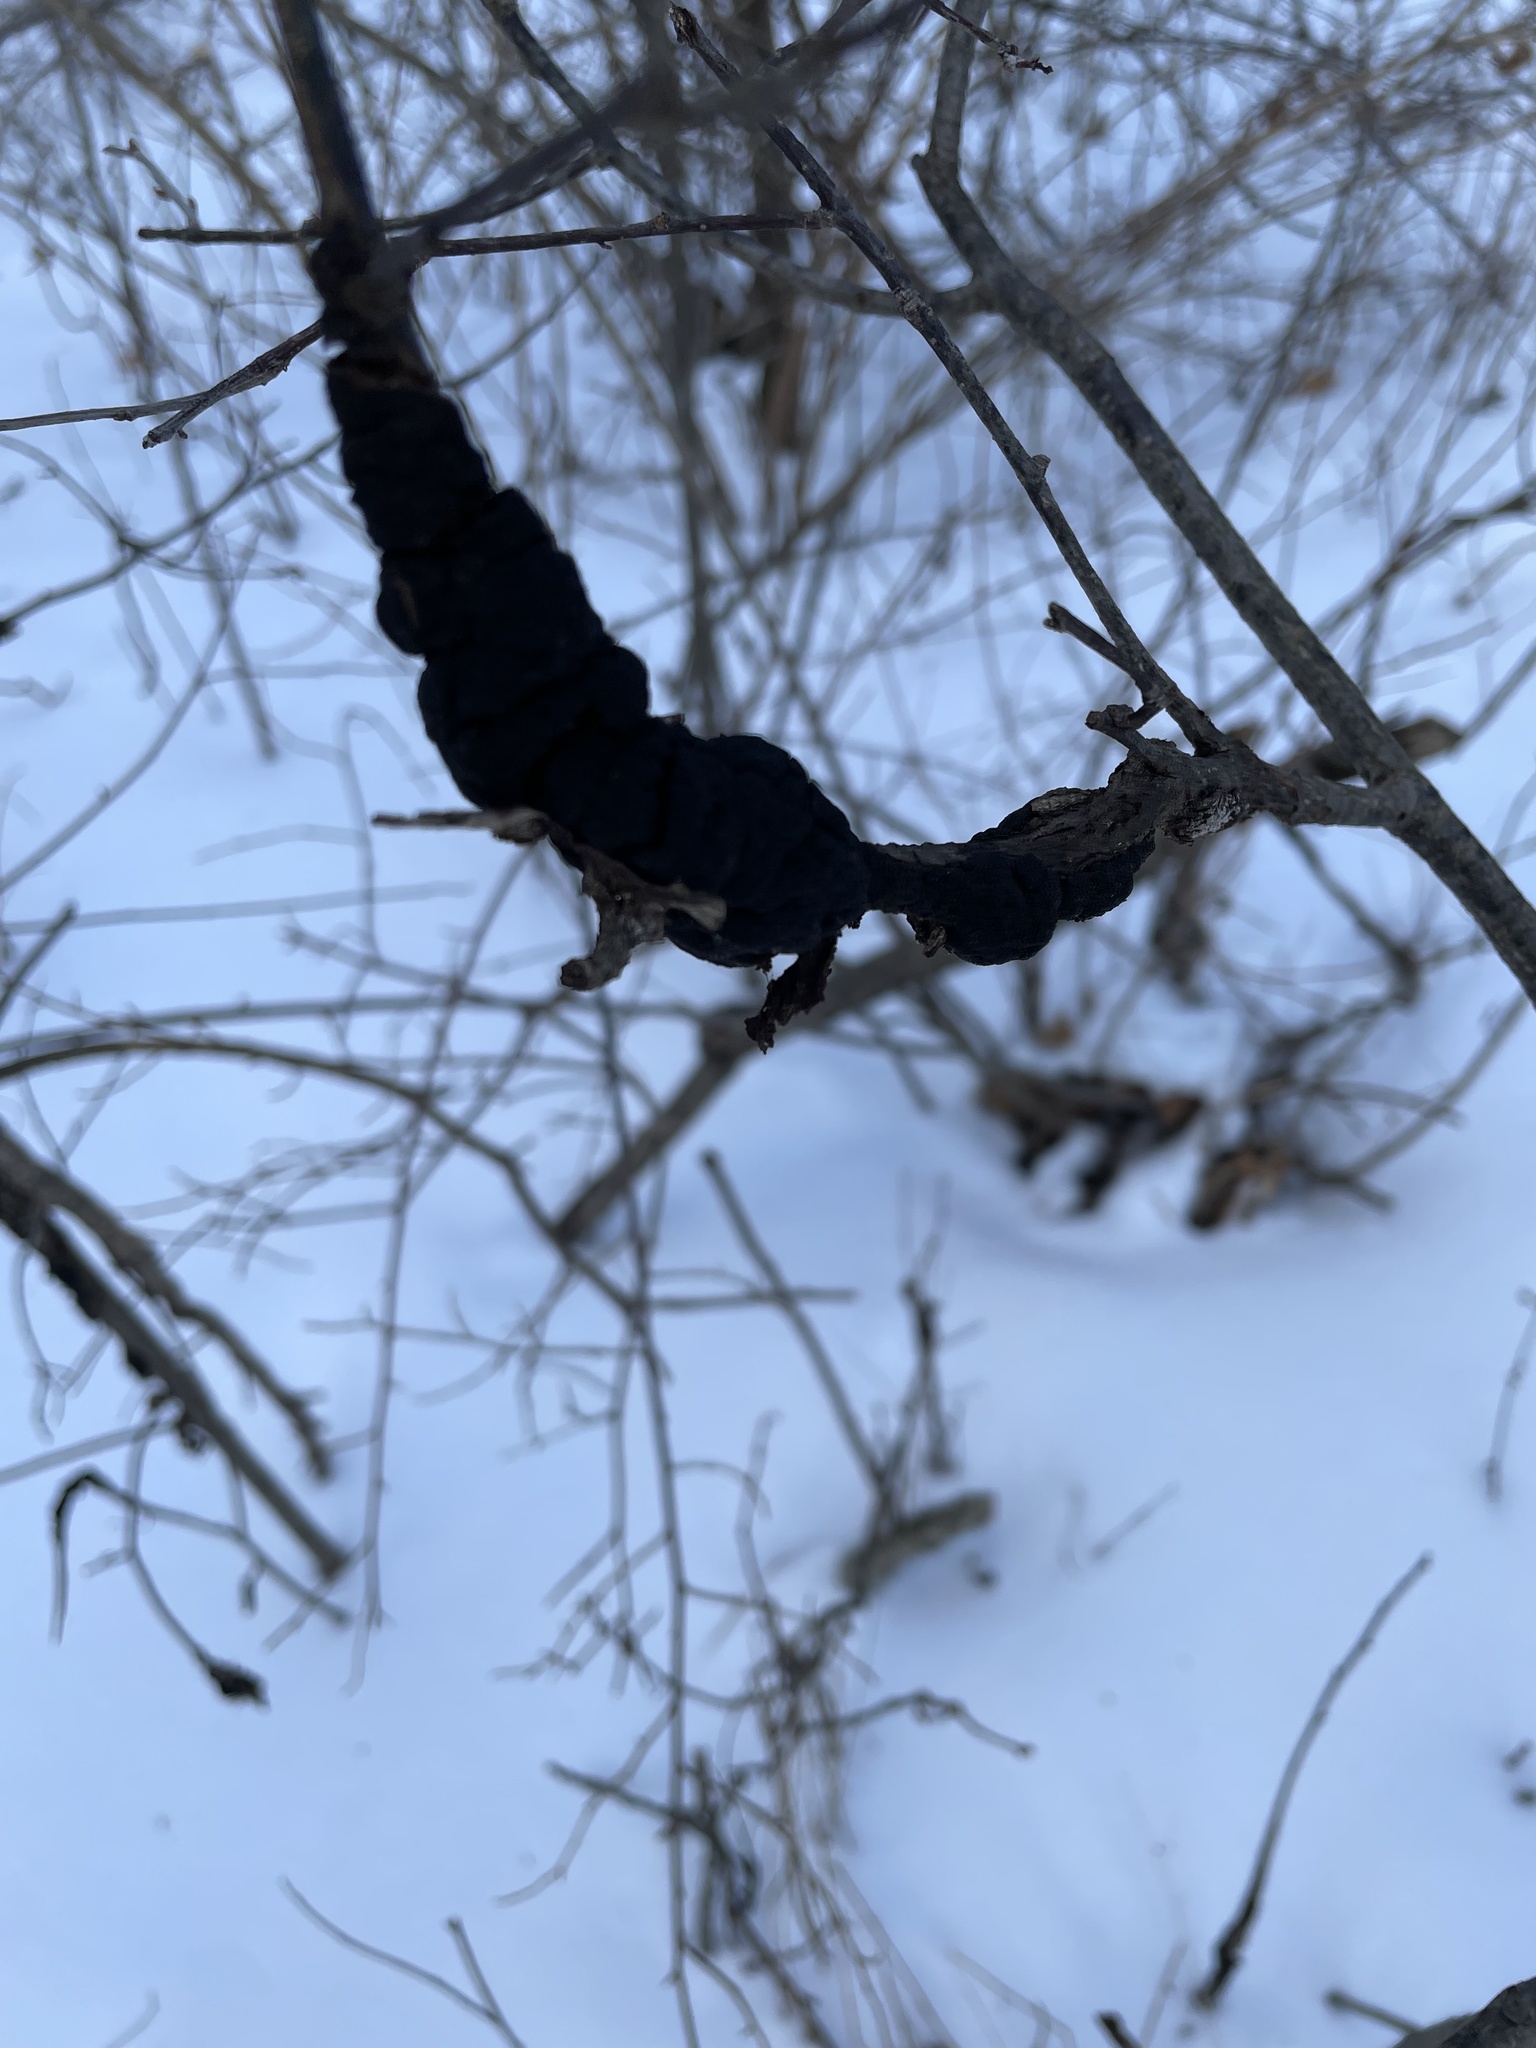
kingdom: Fungi
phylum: Ascomycota
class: Dothideomycetes
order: Venturiales
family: Venturiaceae
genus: Apiosporina
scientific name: Apiosporina morbosa
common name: Black knot
